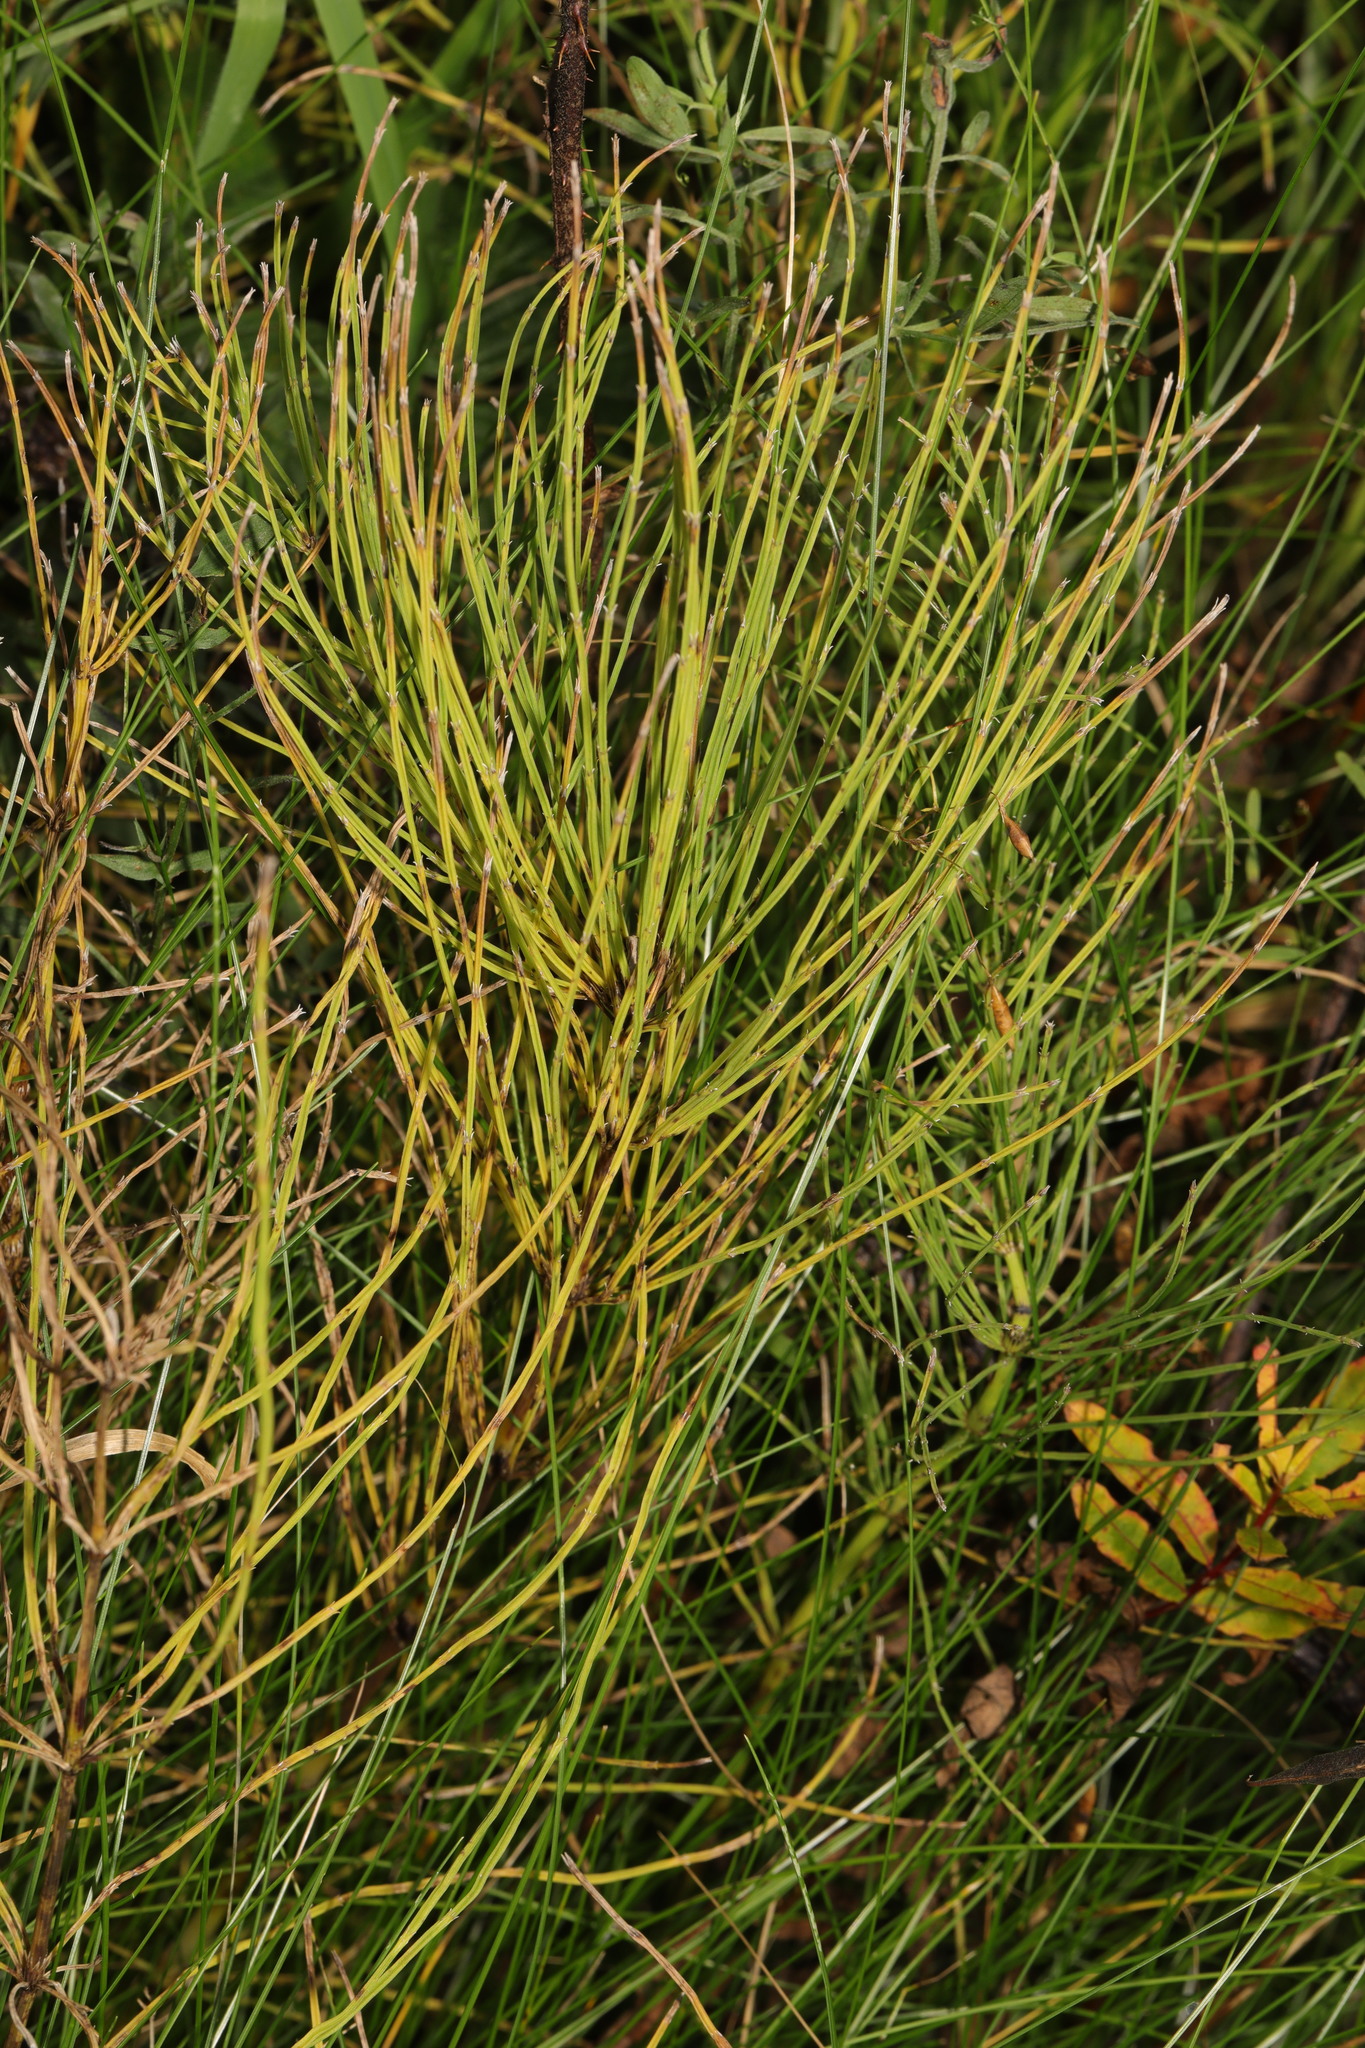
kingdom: Plantae
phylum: Tracheophyta
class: Polypodiopsida
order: Equisetales
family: Equisetaceae
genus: Equisetum
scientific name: Equisetum arvense
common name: Field horsetail
